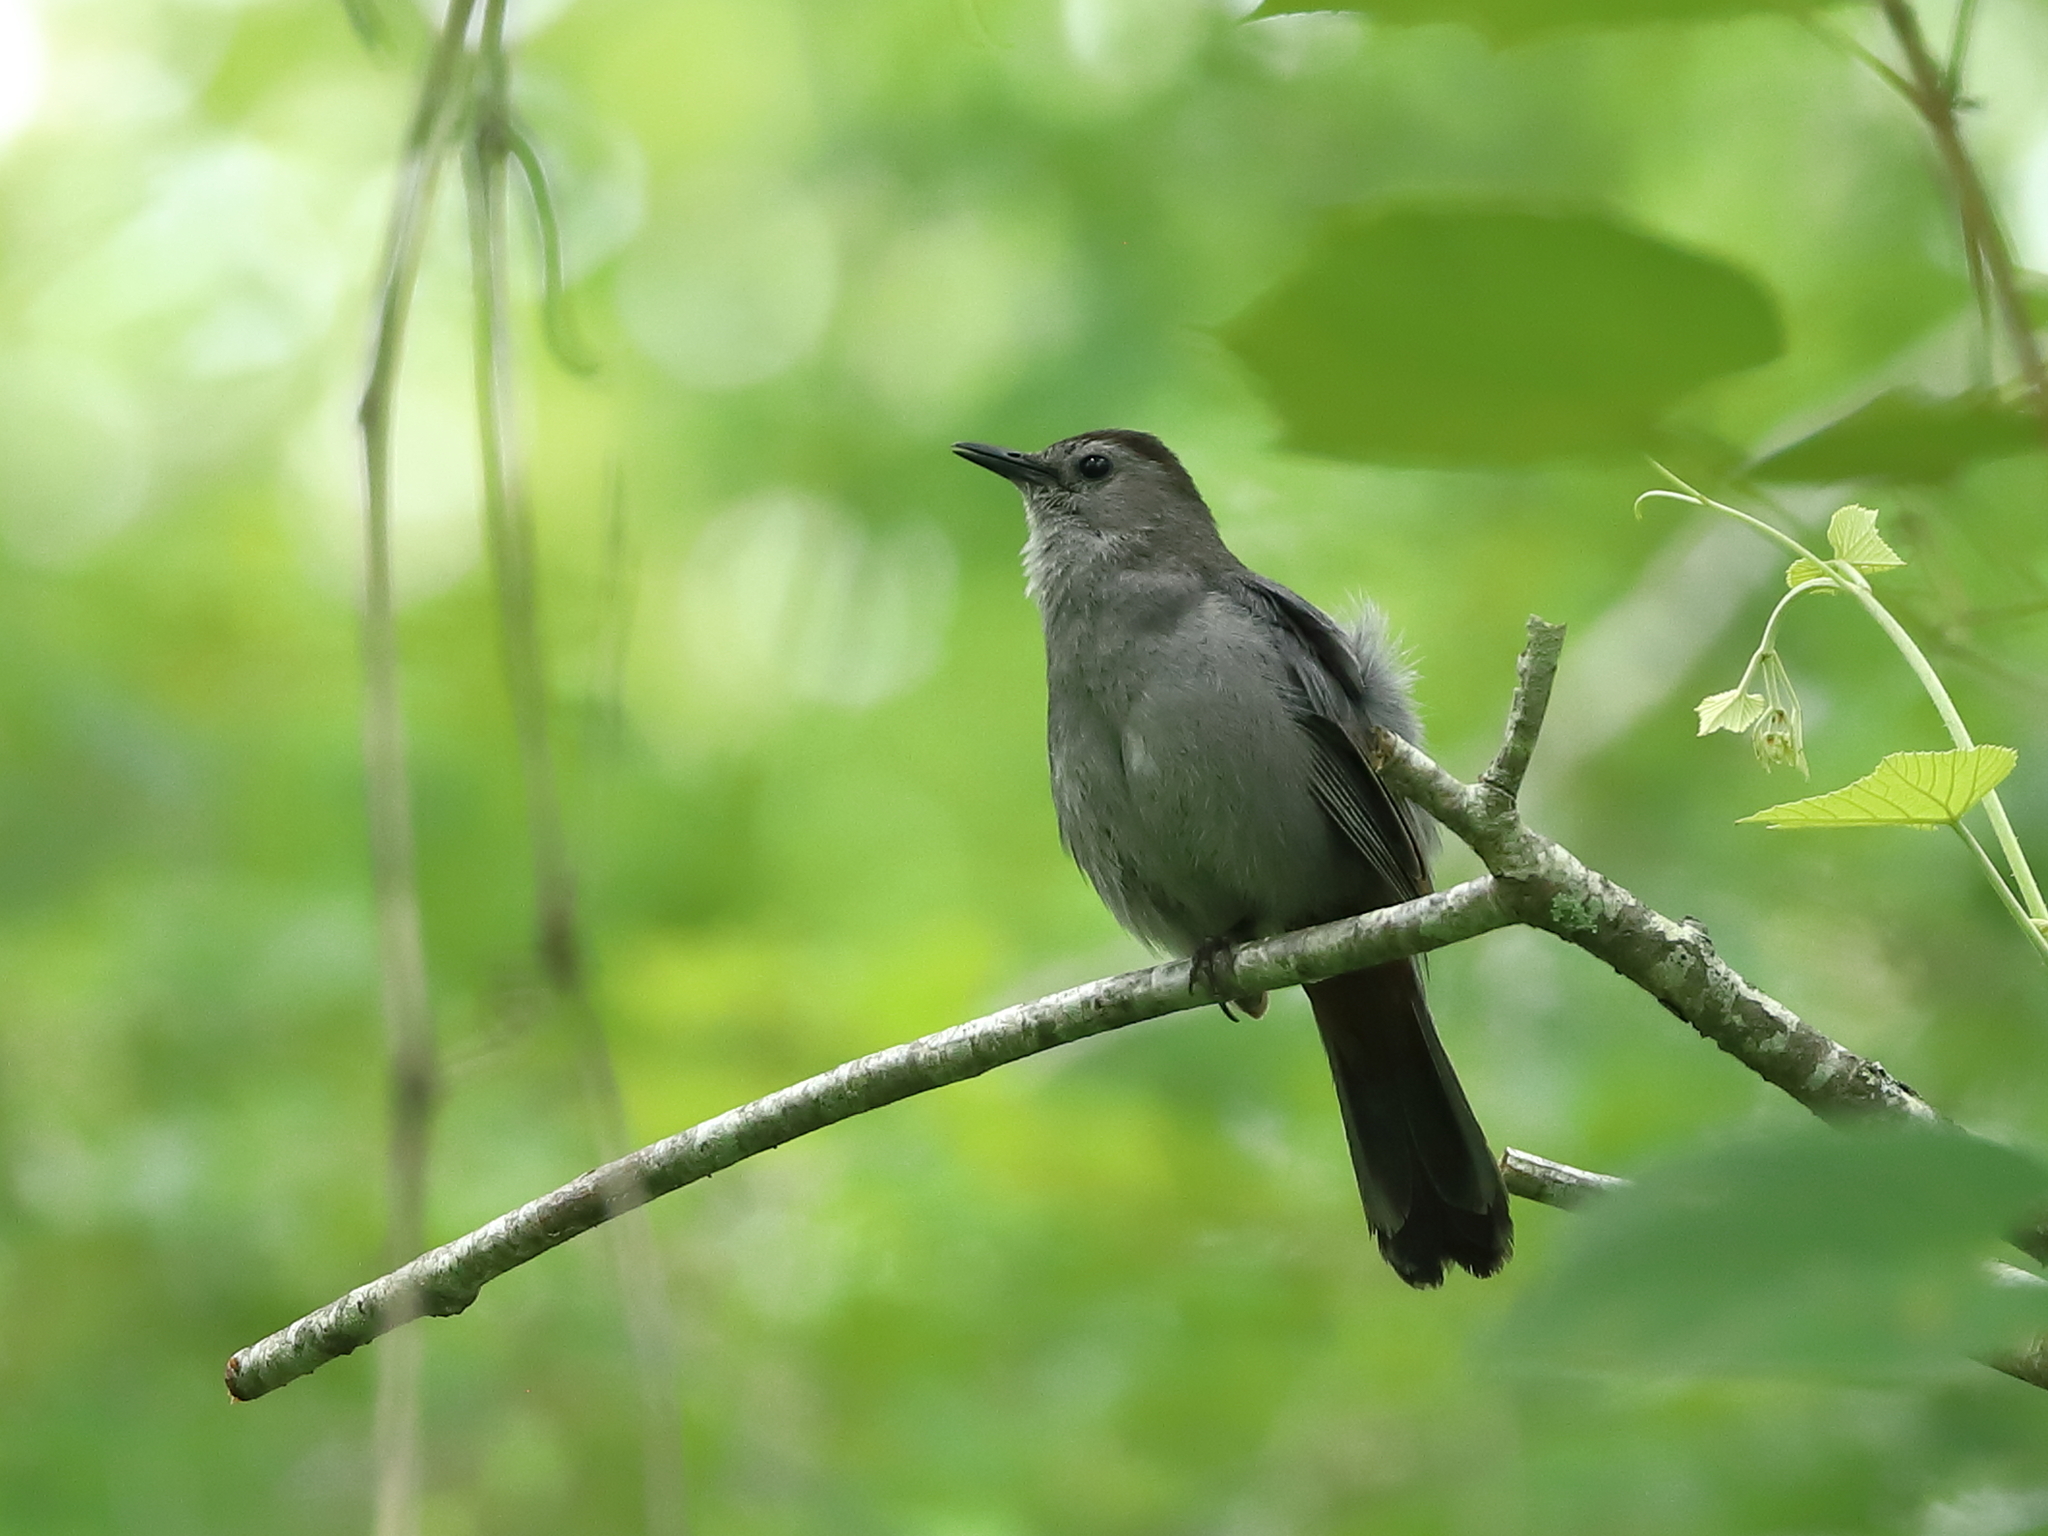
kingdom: Animalia
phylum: Chordata
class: Aves
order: Passeriformes
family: Mimidae
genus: Dumetella
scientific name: Dumetella carolinensis
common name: Gray catbird
